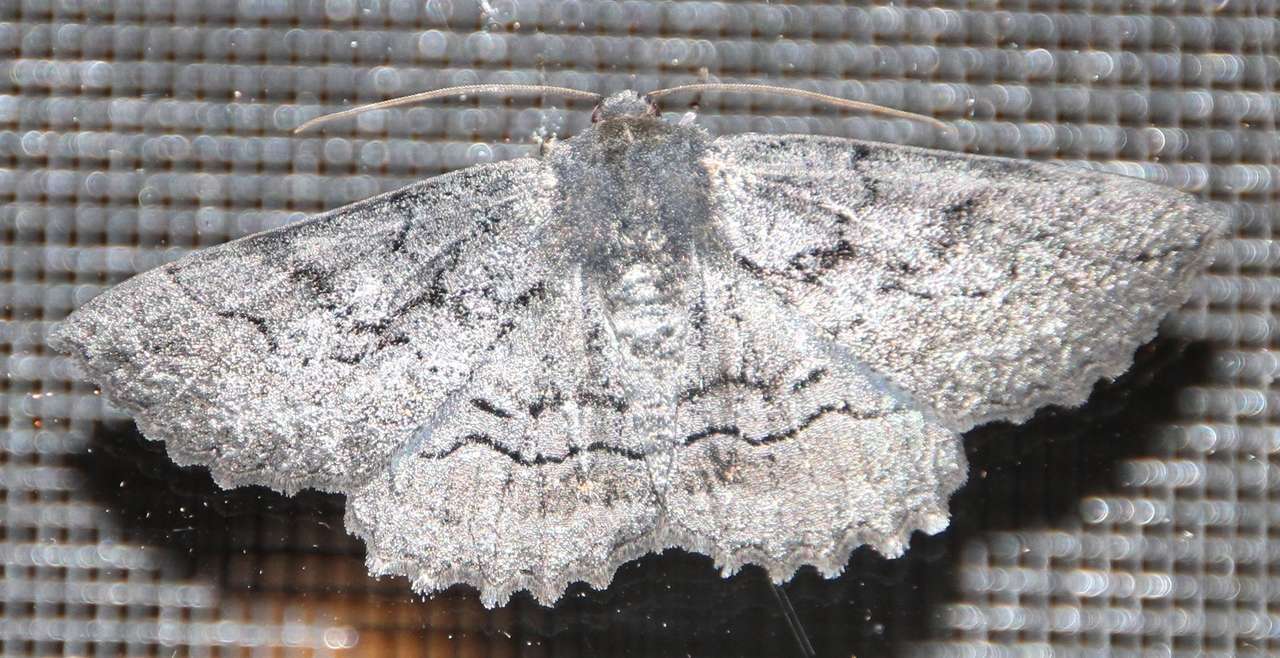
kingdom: Animalia
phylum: Arthropoda
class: Insecta
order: Lepidoptera
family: Geometridae
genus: Melanodes
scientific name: Melanodes anthracitaria
